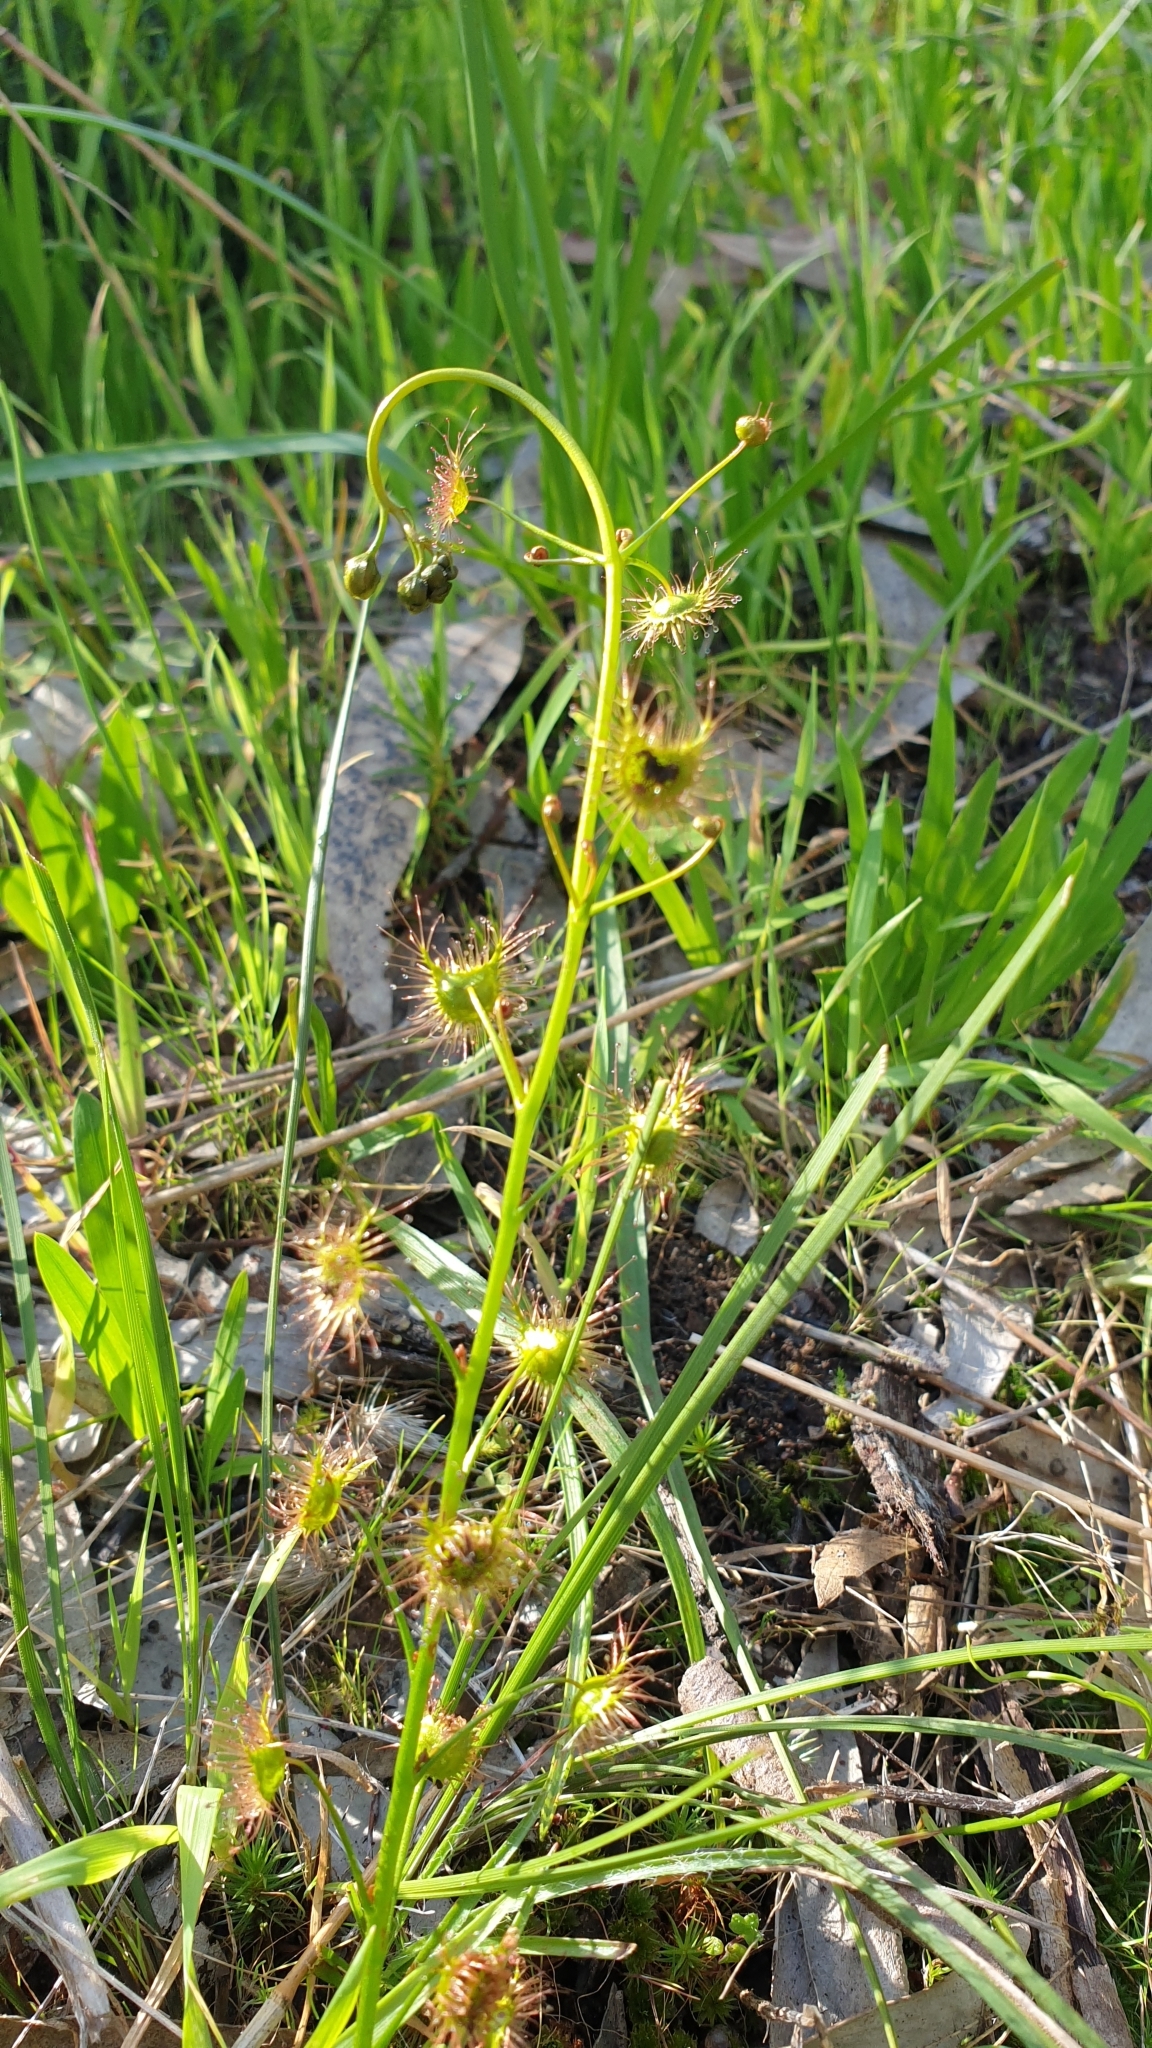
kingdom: Plantae
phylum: Tracheophyta
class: Magnoliopsida
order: Caryophyllales
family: Droseraceae
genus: Drosera
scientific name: Drosera peltata
